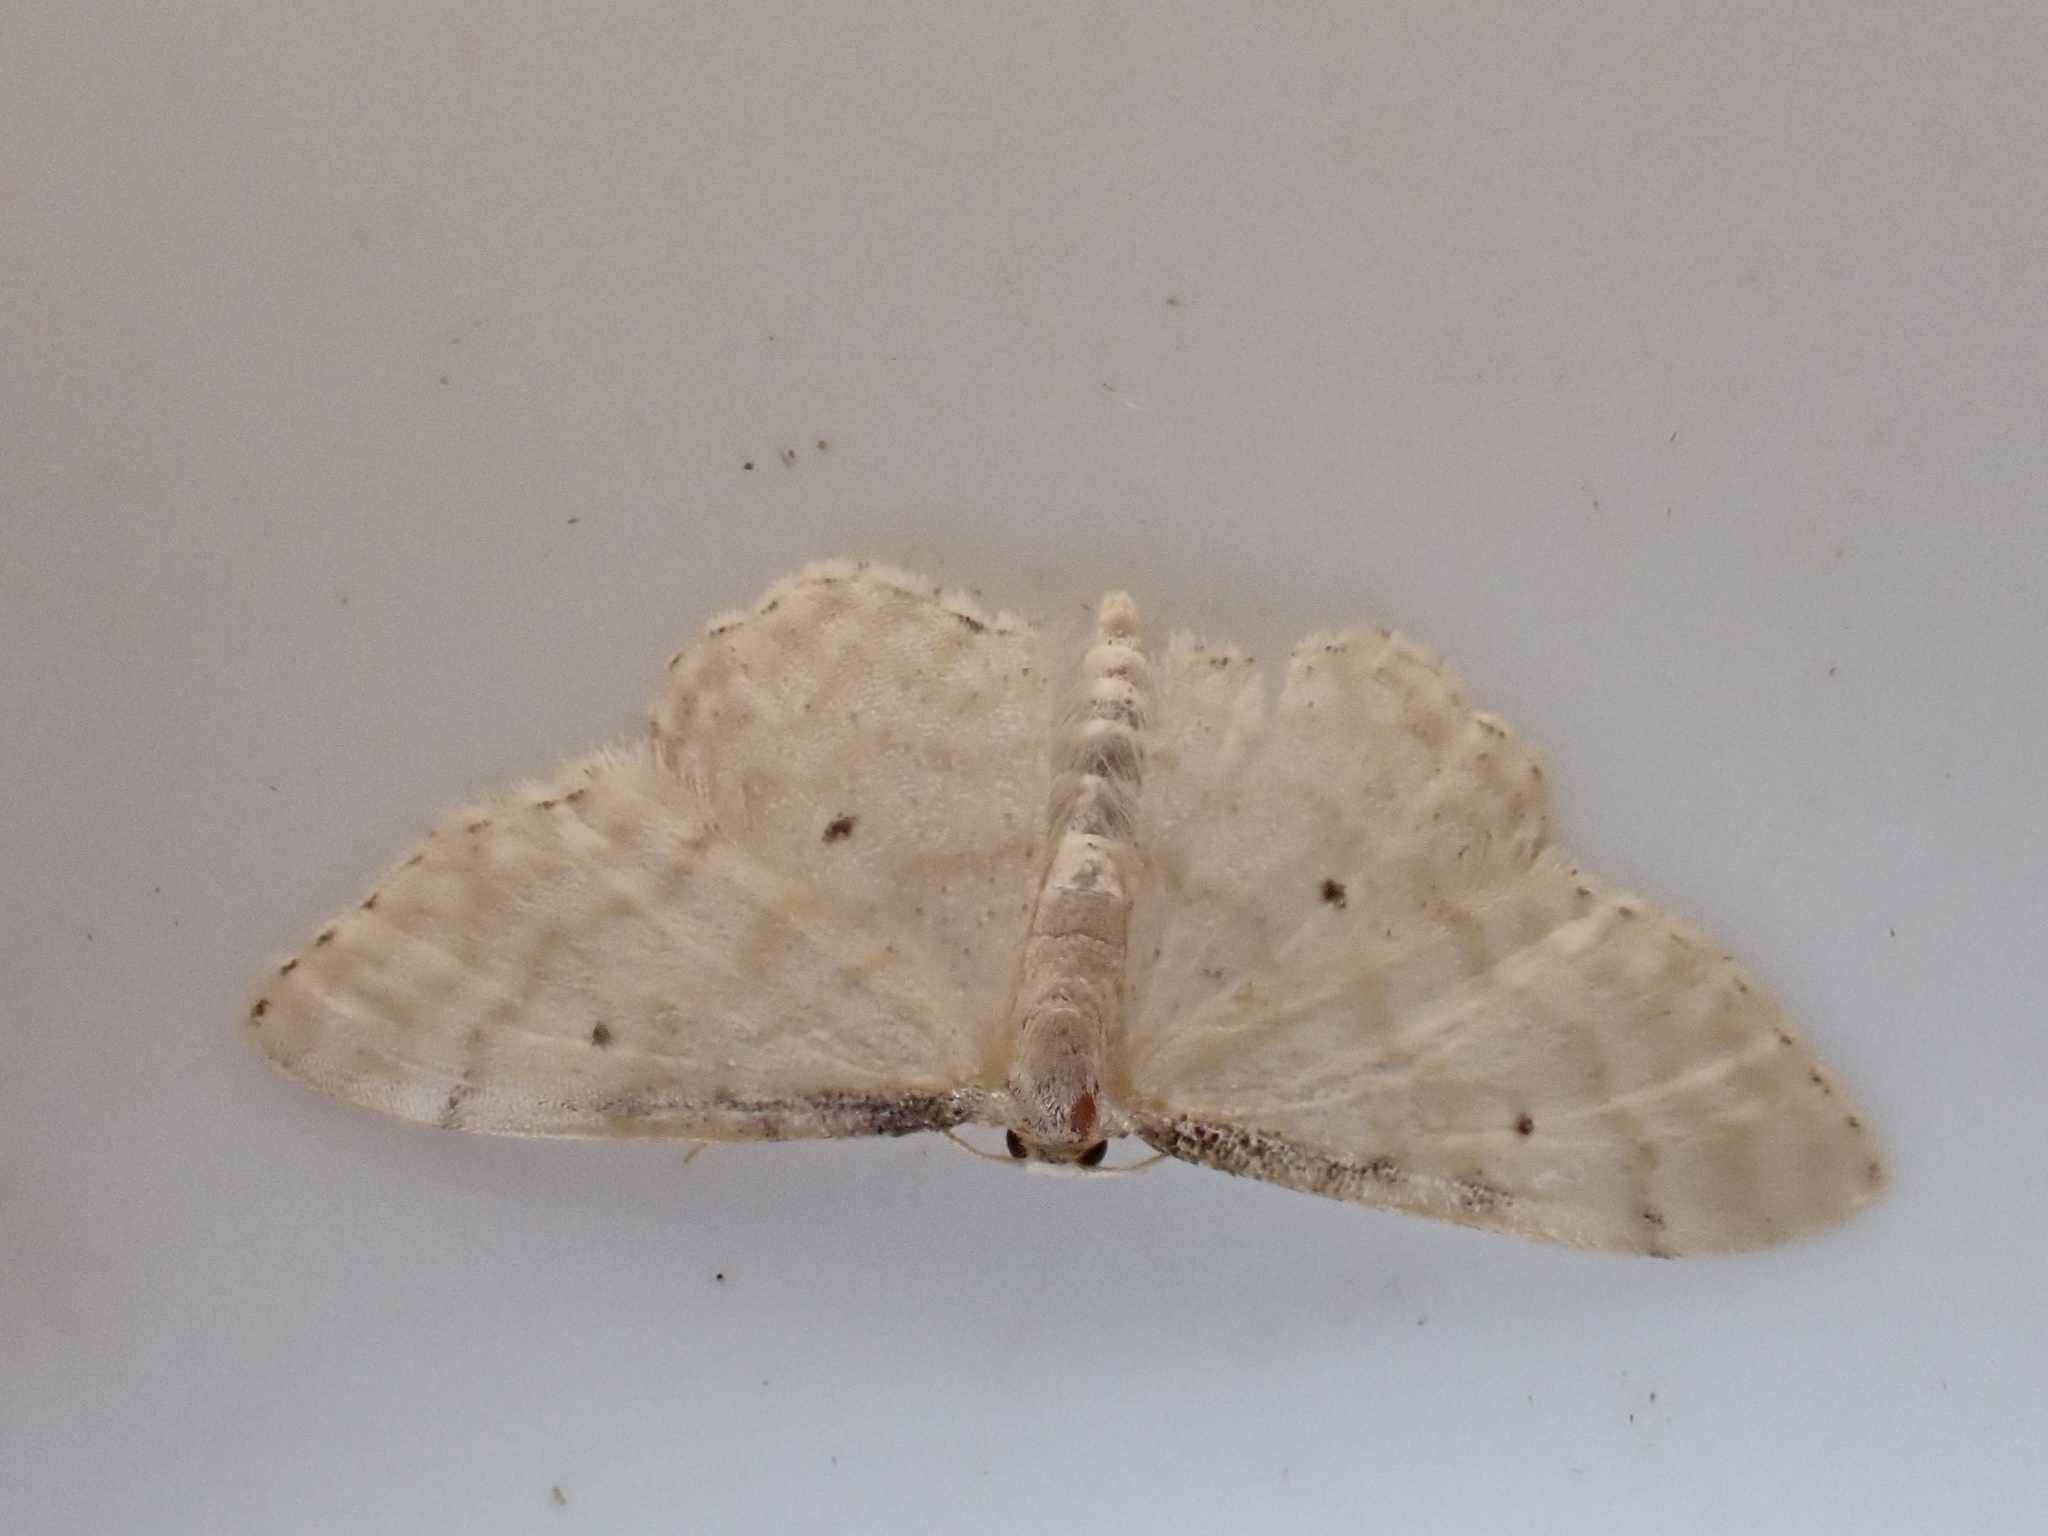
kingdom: Animalia
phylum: Arthropoda
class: Insecta
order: Lepidoptera
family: Geometridae
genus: Idaea
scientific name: Idaea fuscovenosa
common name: Dwarf cream wave
